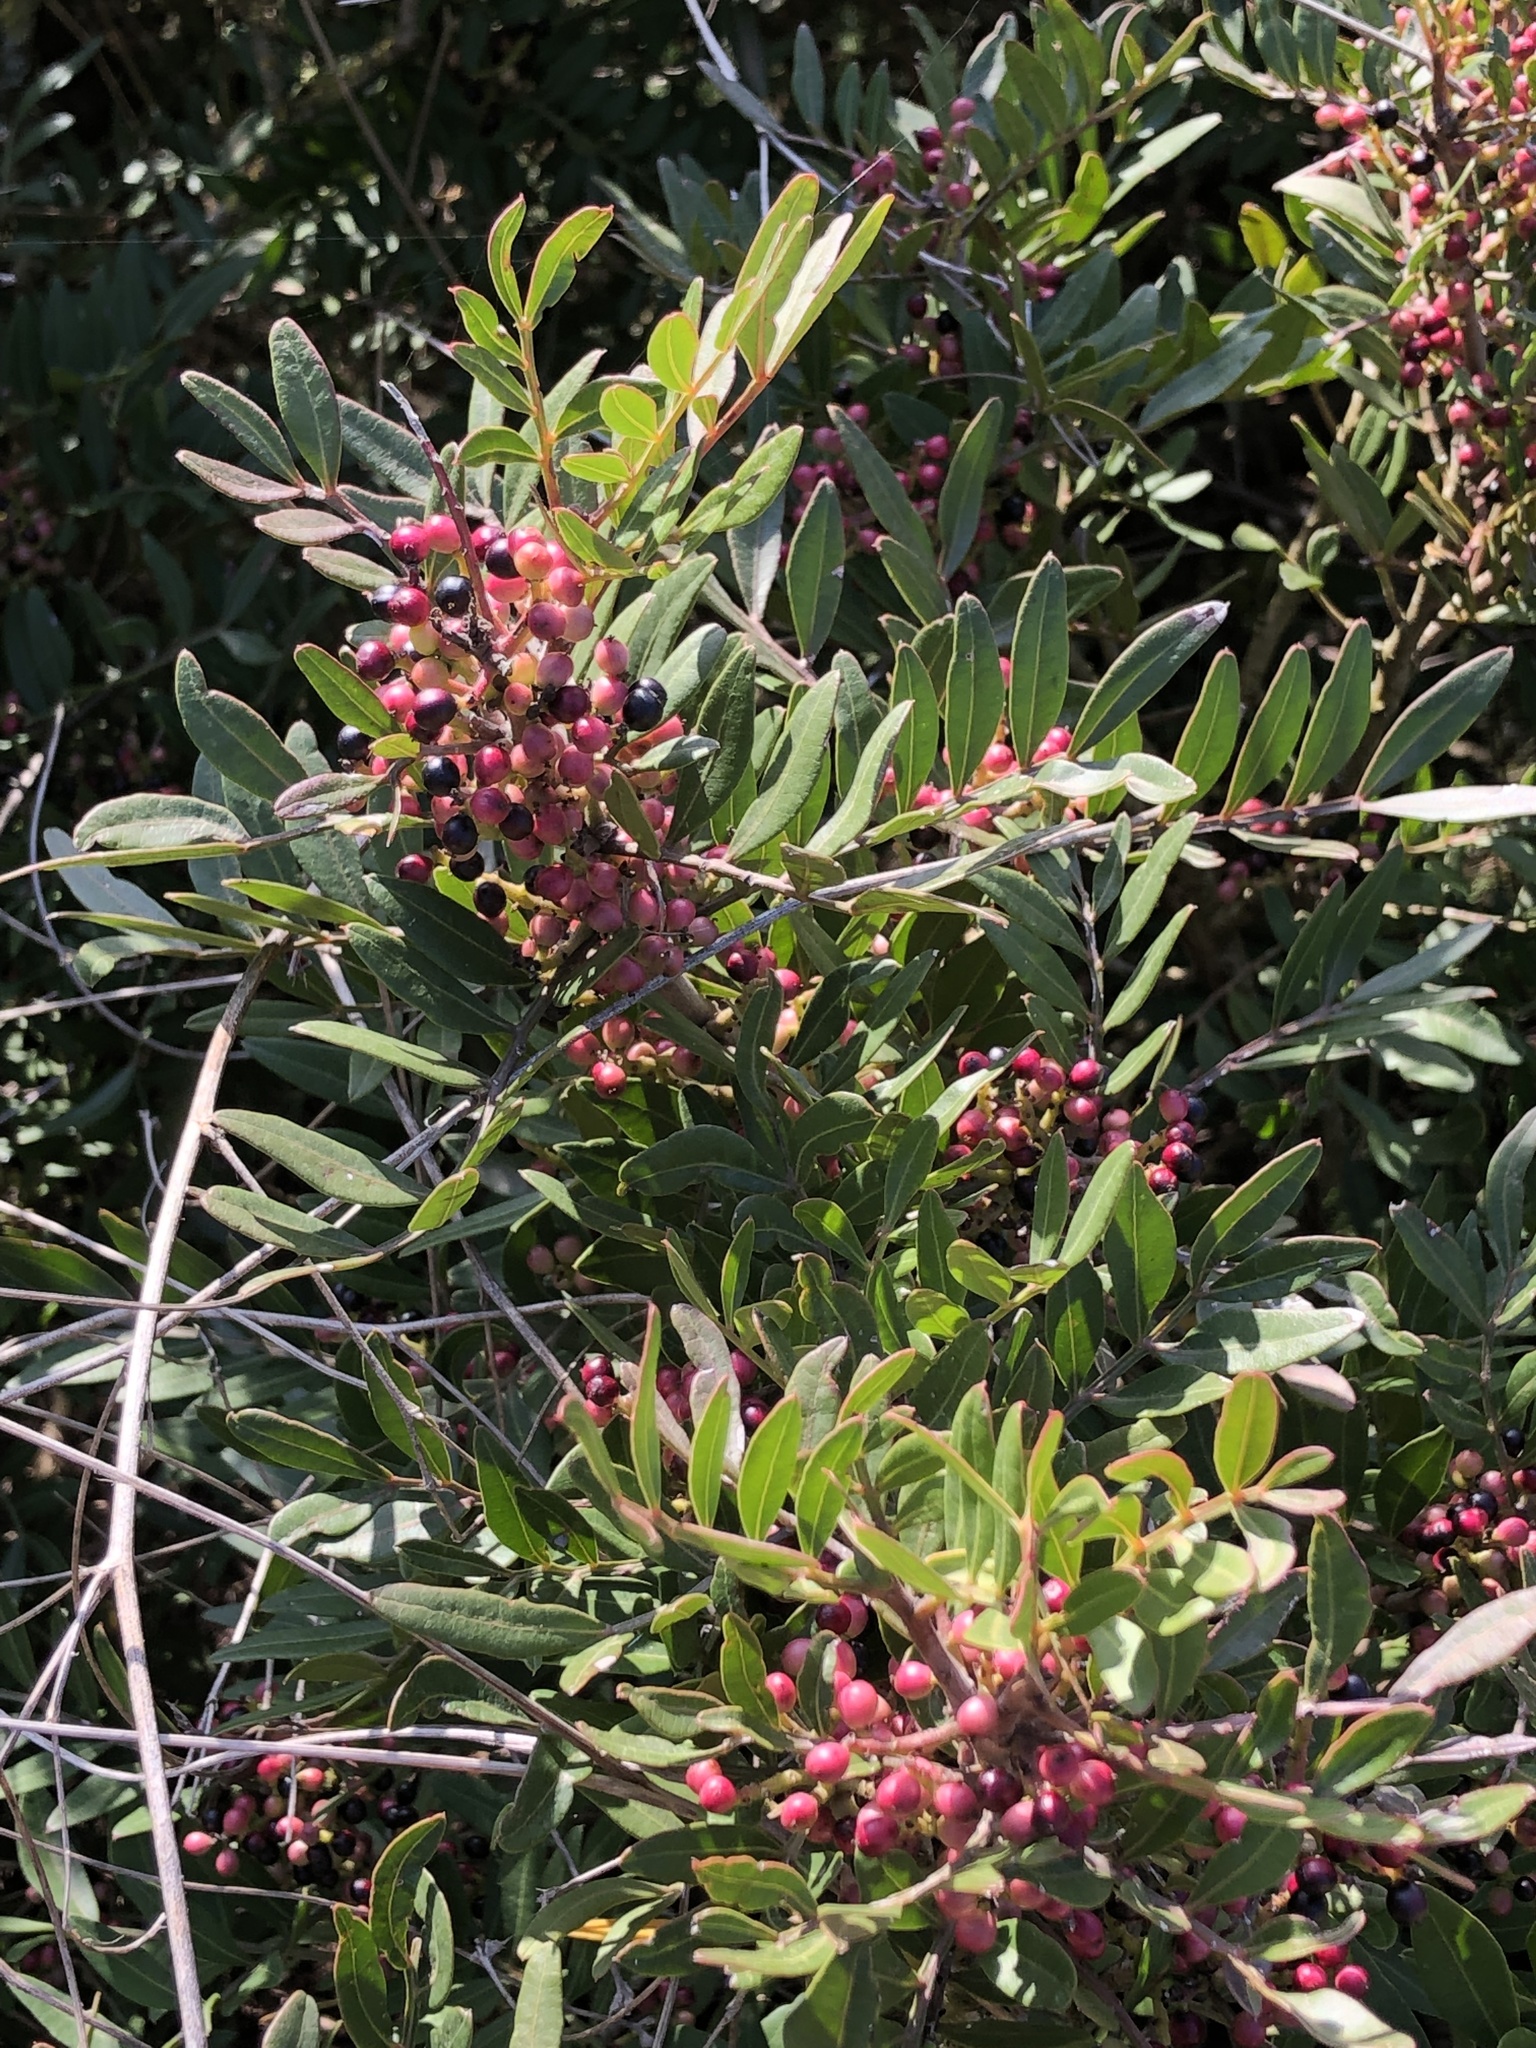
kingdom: Plantae
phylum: Tracheophyta
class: Magnoliopsida
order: Sapindales
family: Anacardiaceae
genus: Pistacia
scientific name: Pistacia lentiscus
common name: Lentisk
